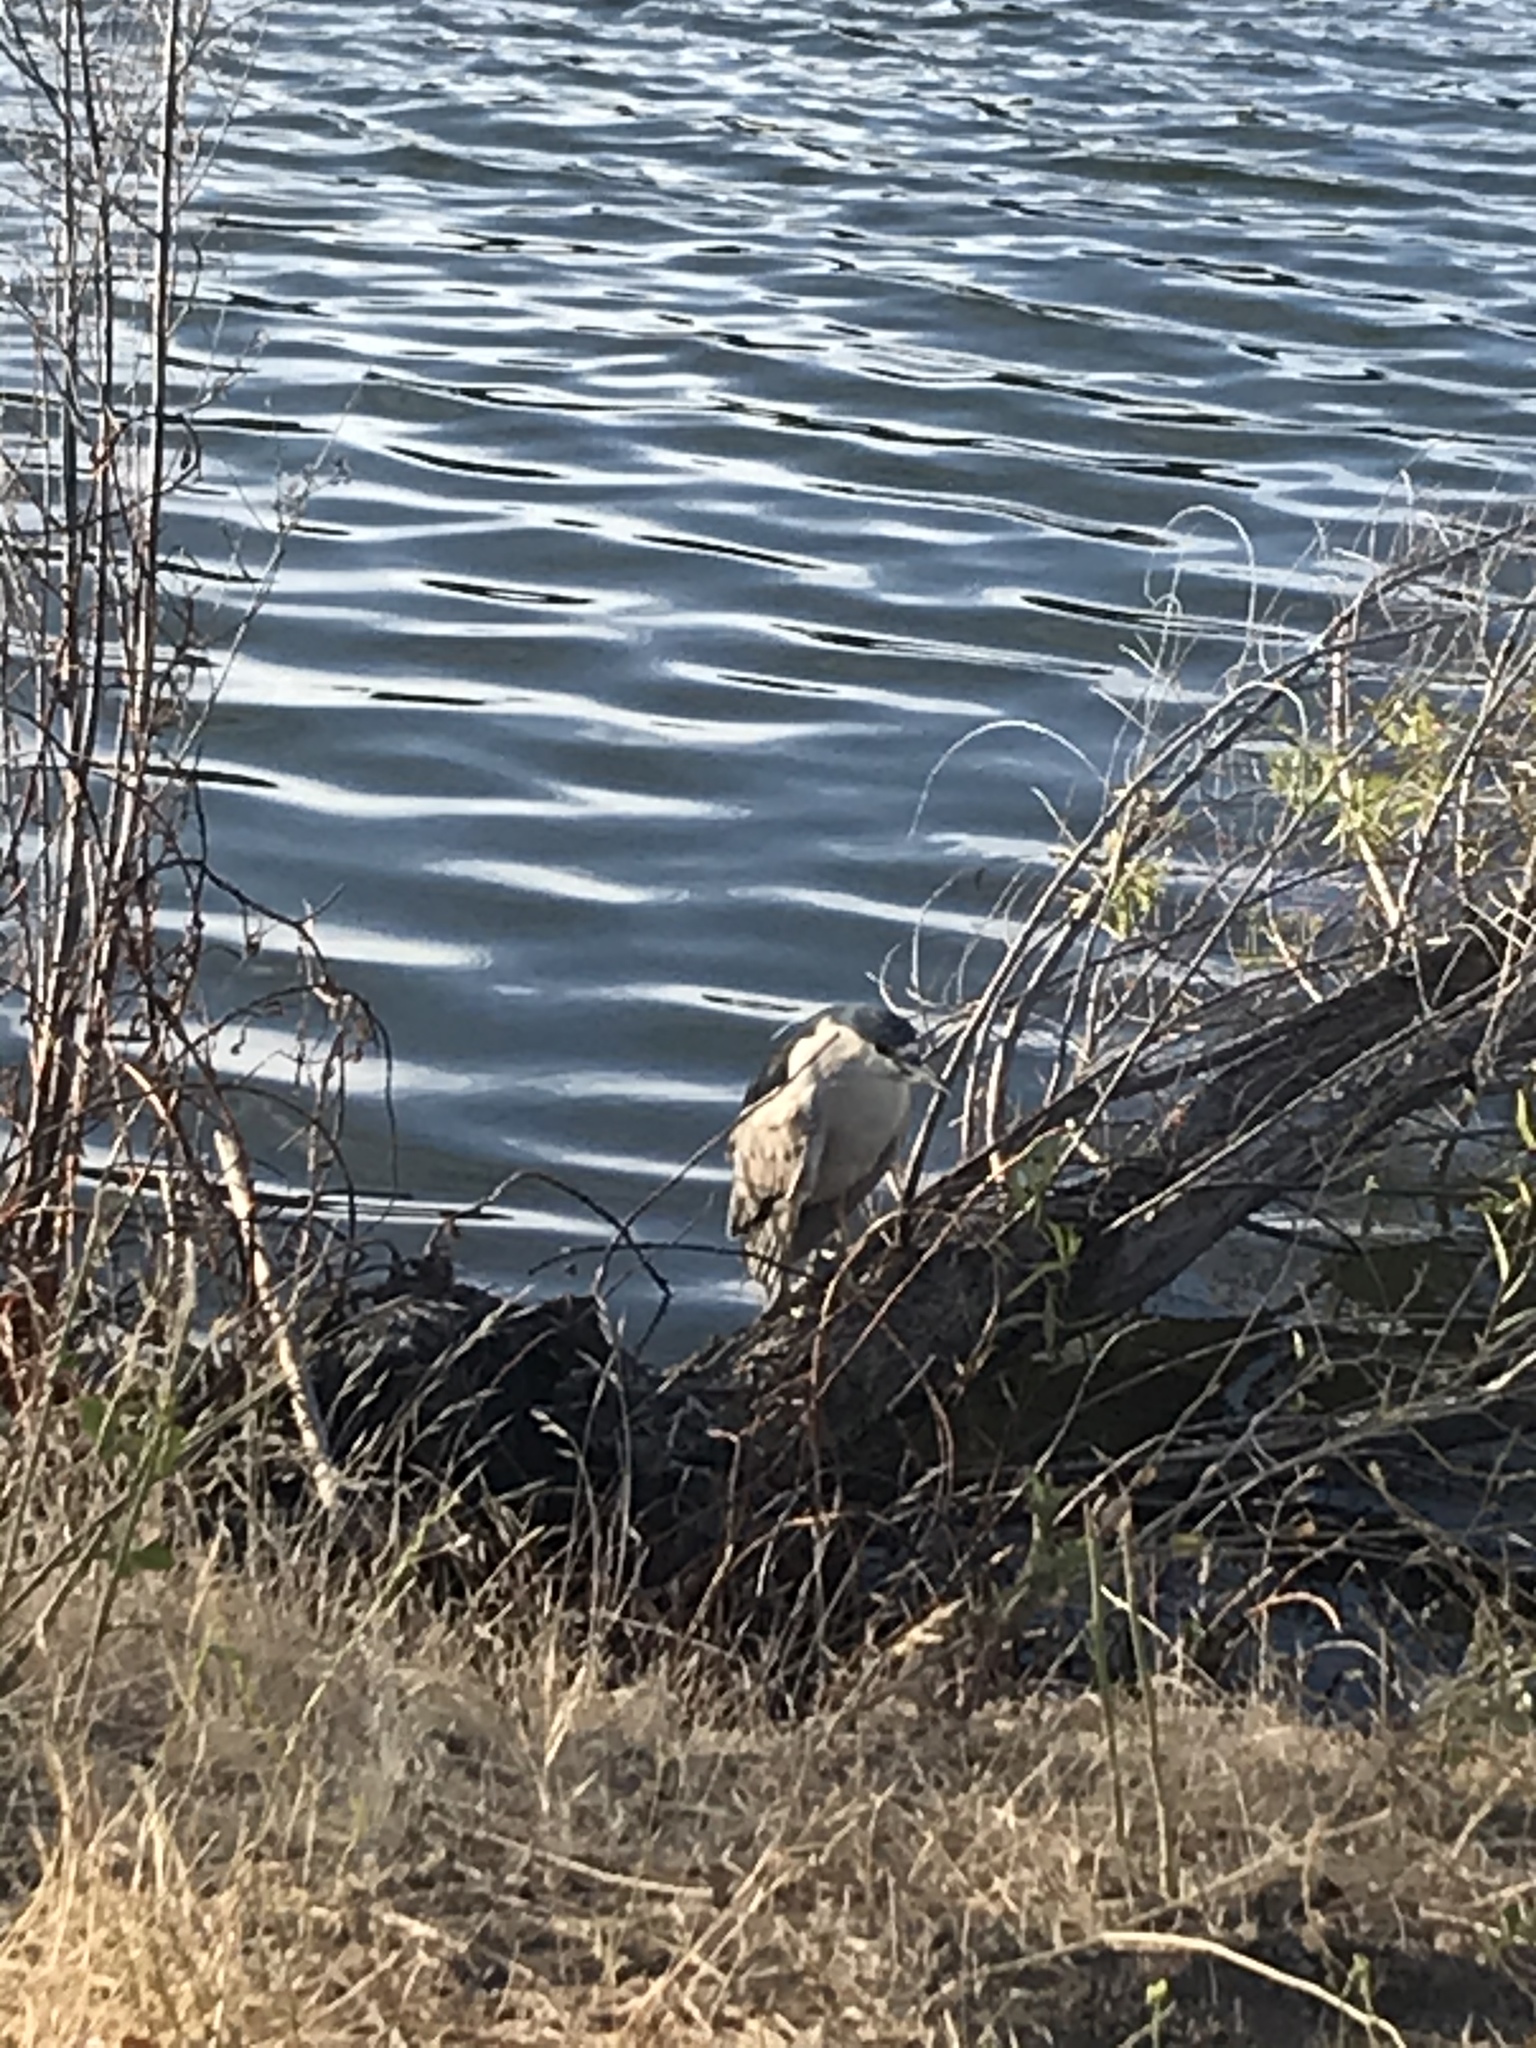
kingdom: Animalia
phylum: Chordata
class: Aves
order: Pelecaniformes
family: Ardeidae
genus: Nycticorax
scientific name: Nycticorax nycticorax
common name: Black-crowned night heron
